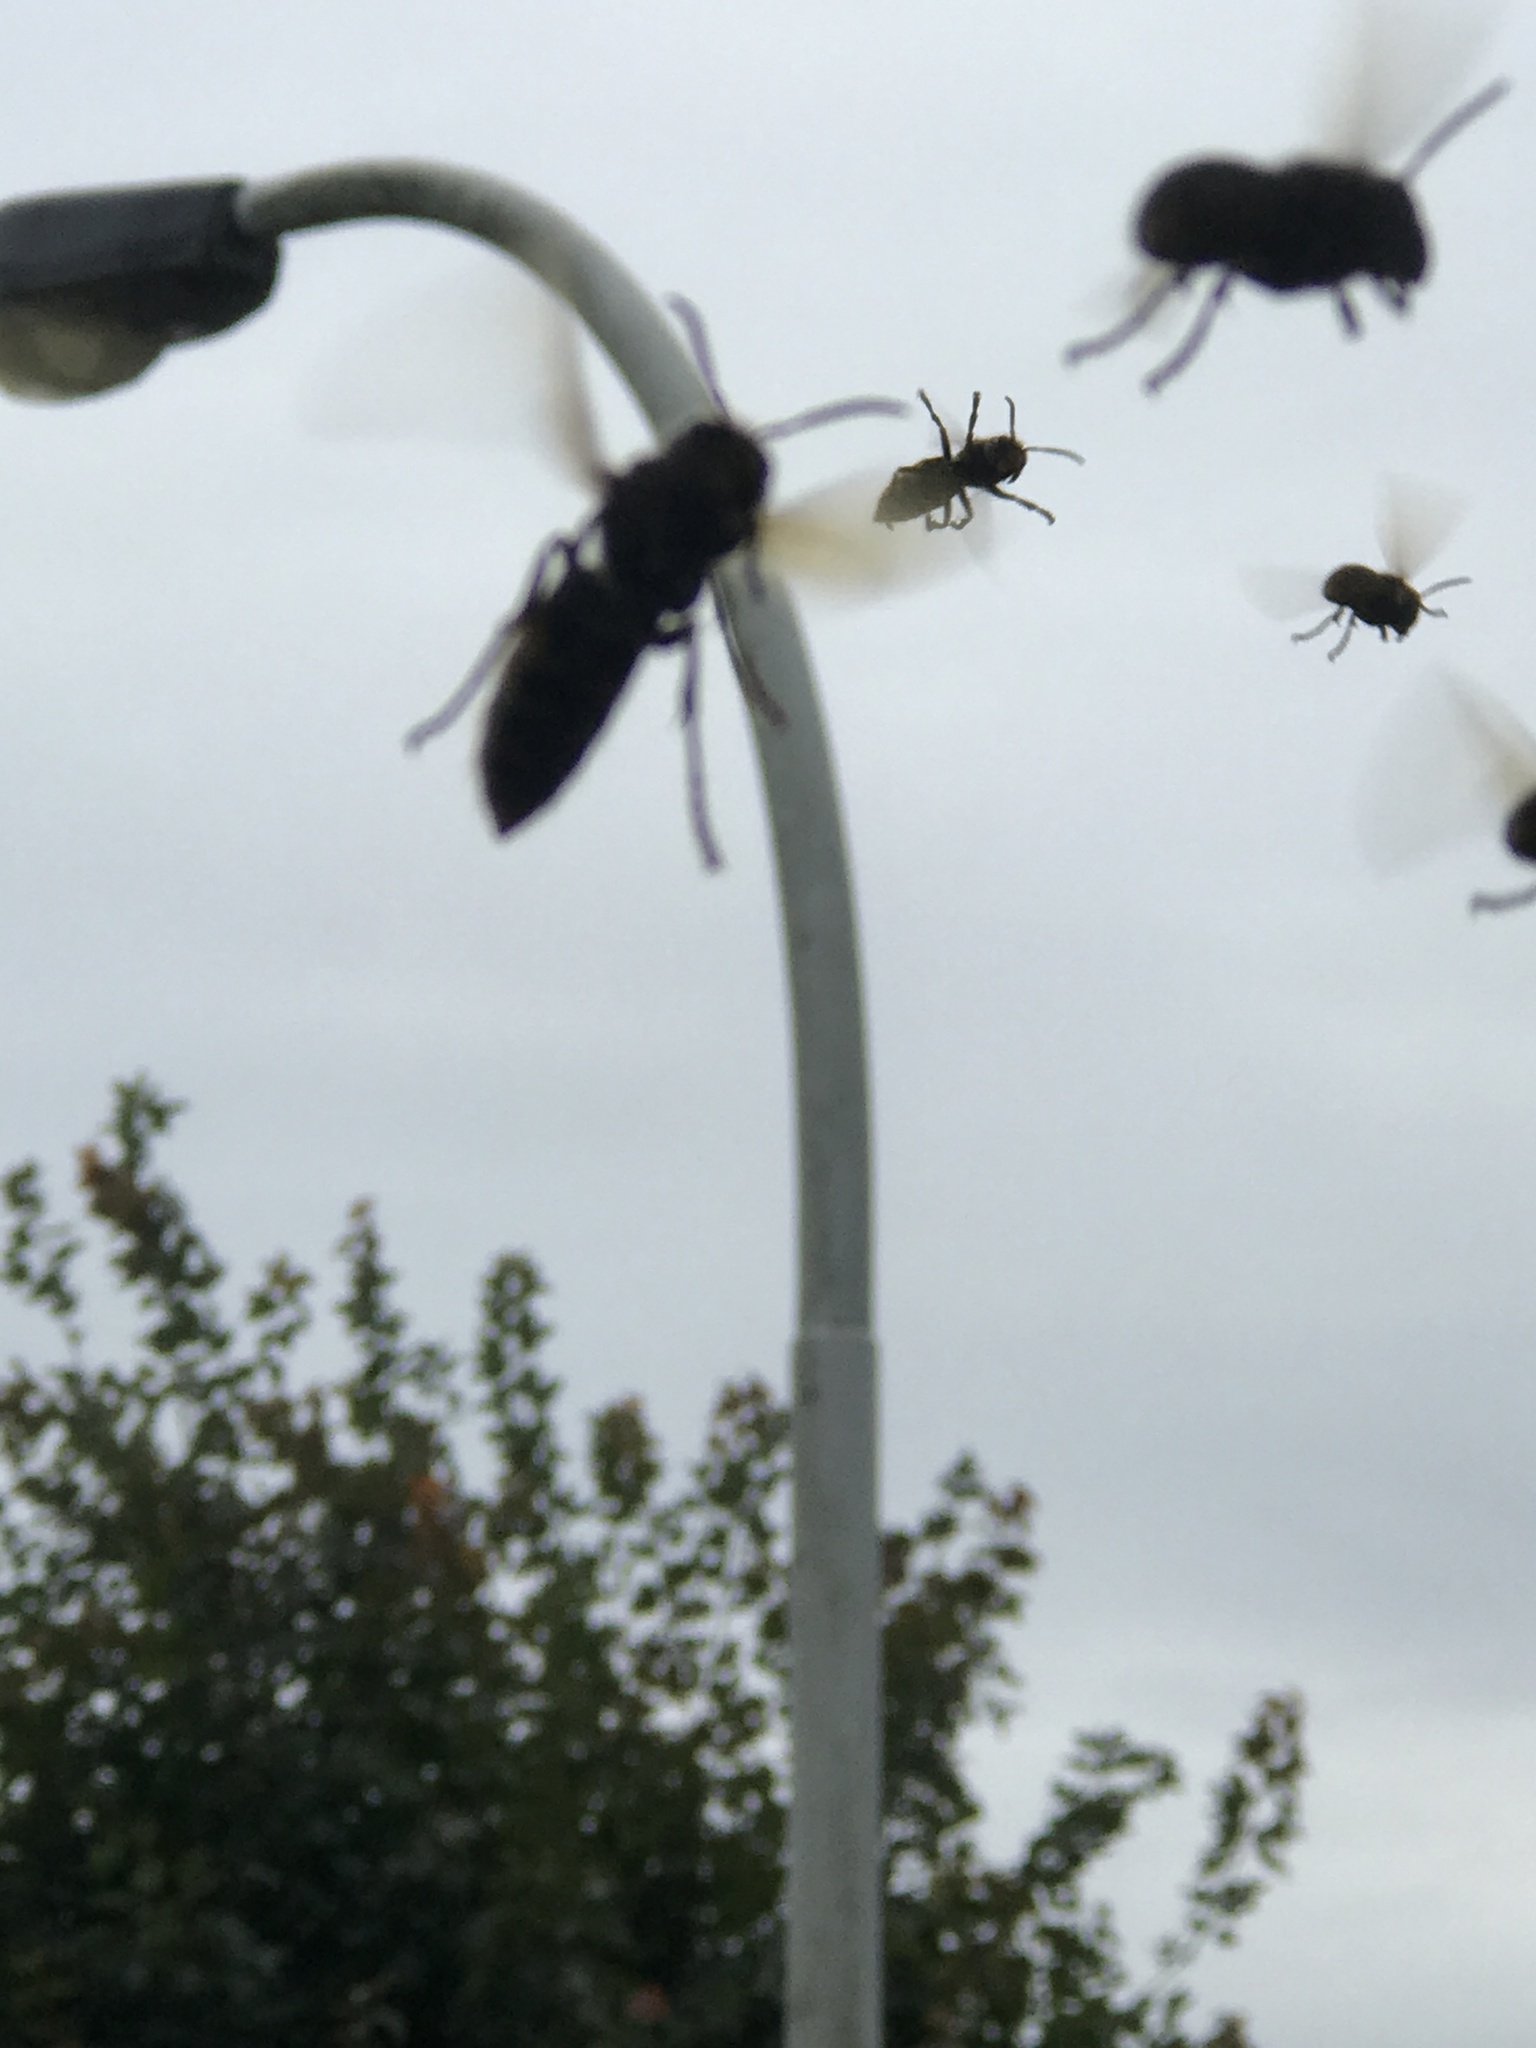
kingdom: Animalia
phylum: Arthropoda
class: Insecta
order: Hymenoptera
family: Vespidae
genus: Vespa
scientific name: Vespa crabro
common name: Hornet
